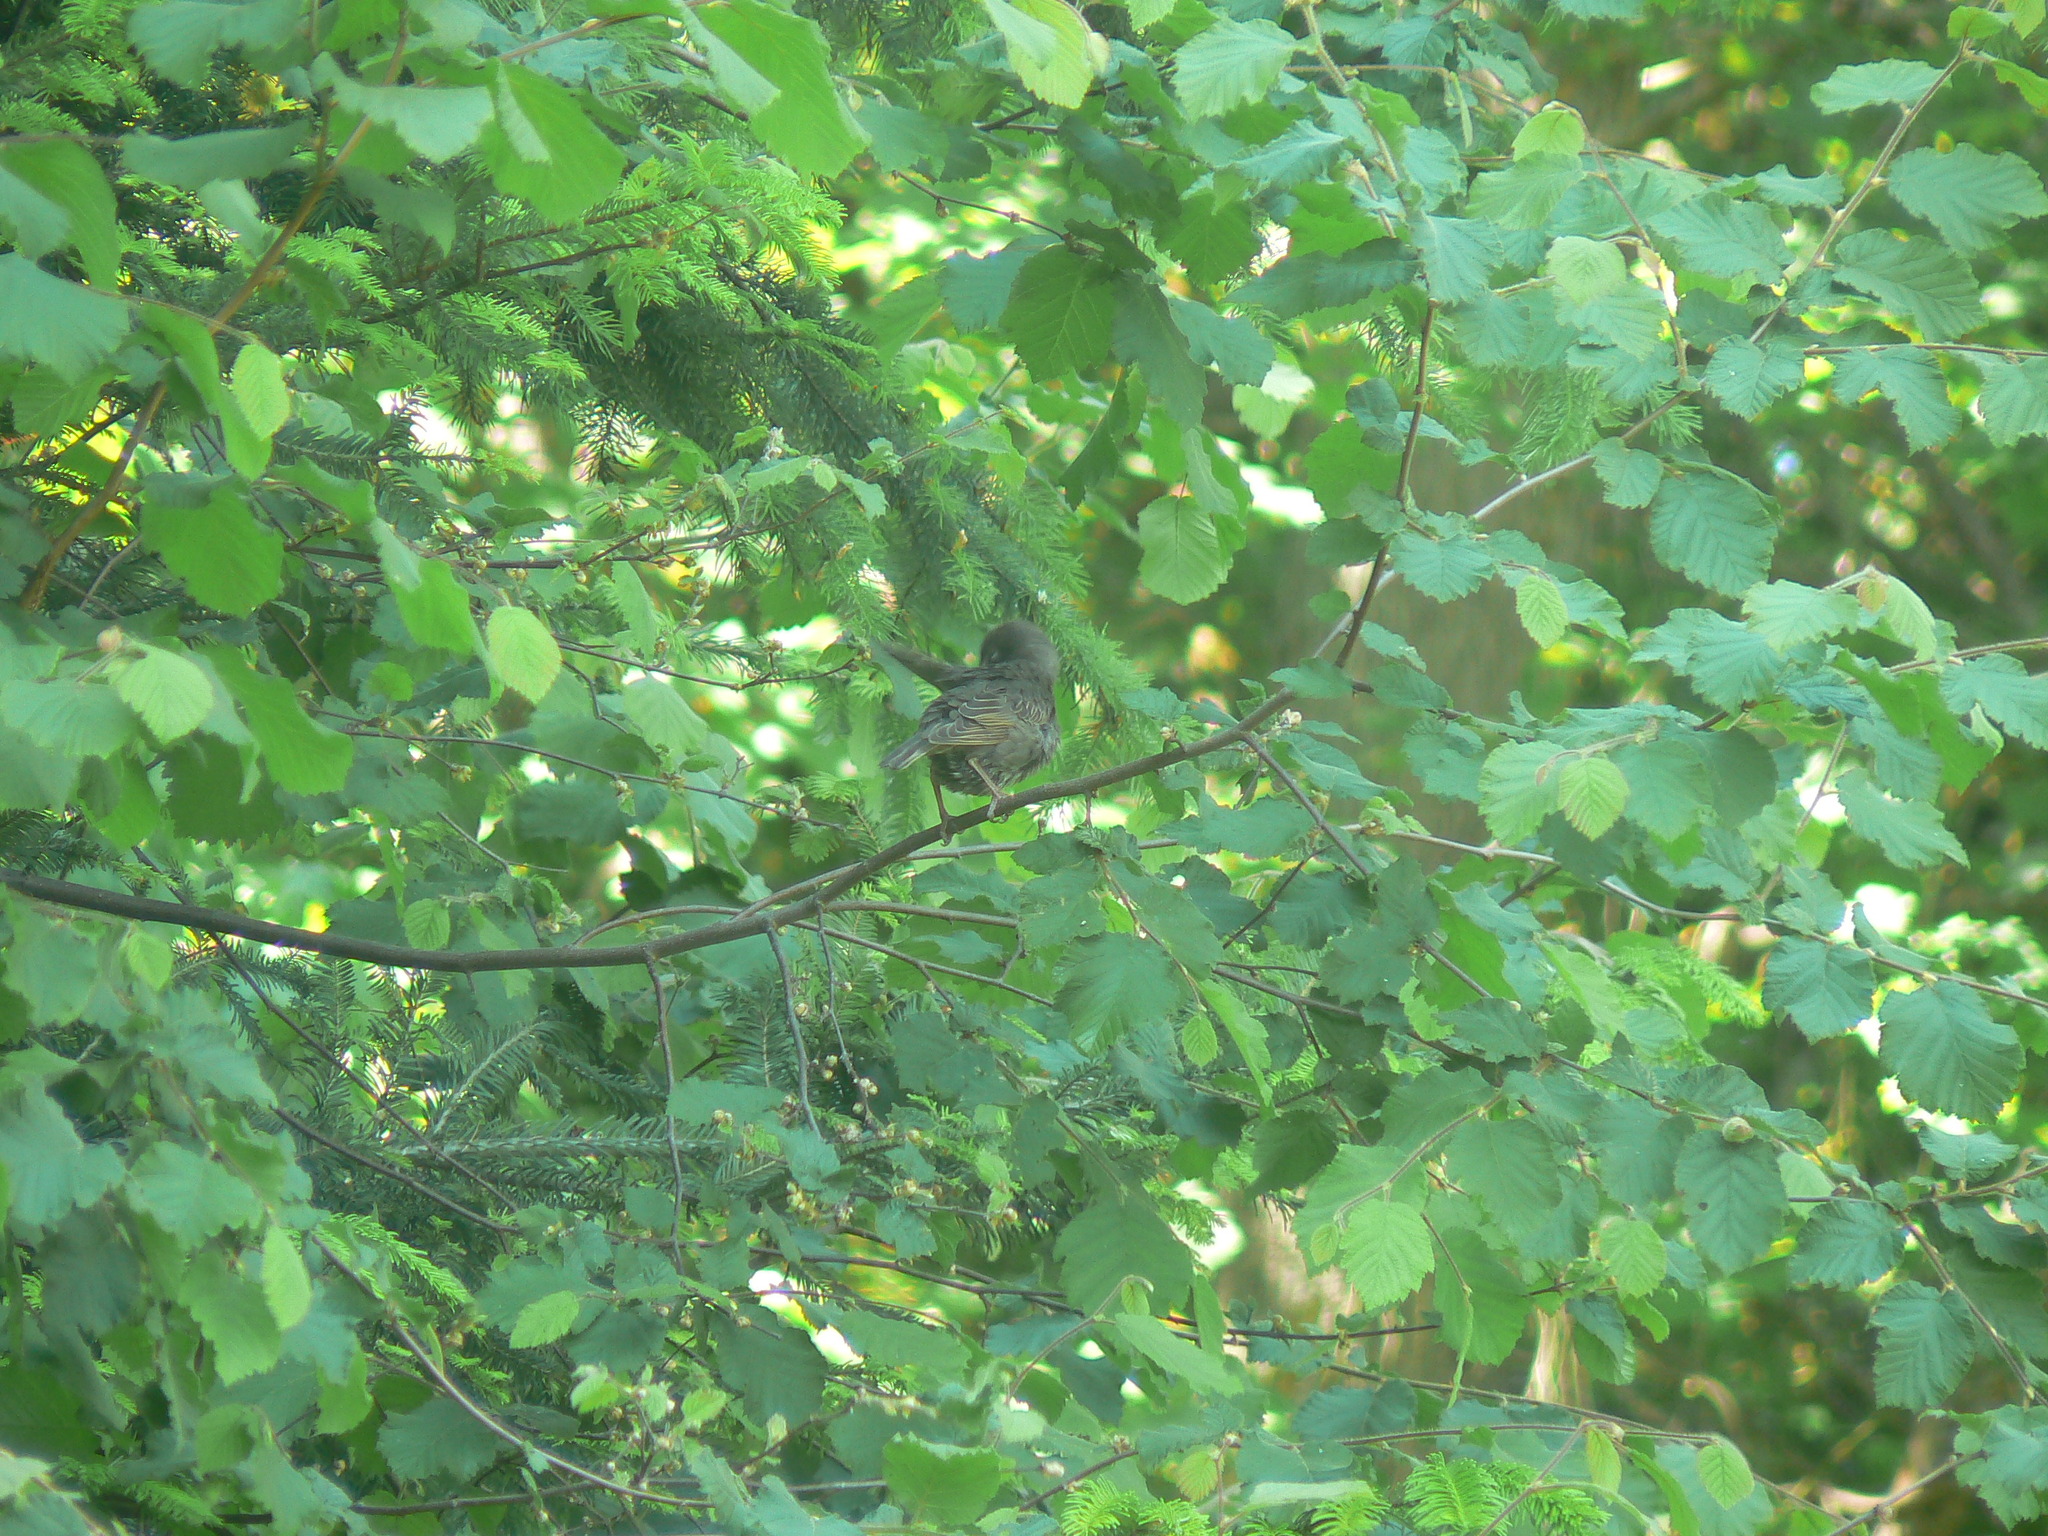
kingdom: Animalia
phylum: Chordata
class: Aves
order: Passeriformes
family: Sturnidae
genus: Sturnus
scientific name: Sturnus vulgaris
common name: Common starling
